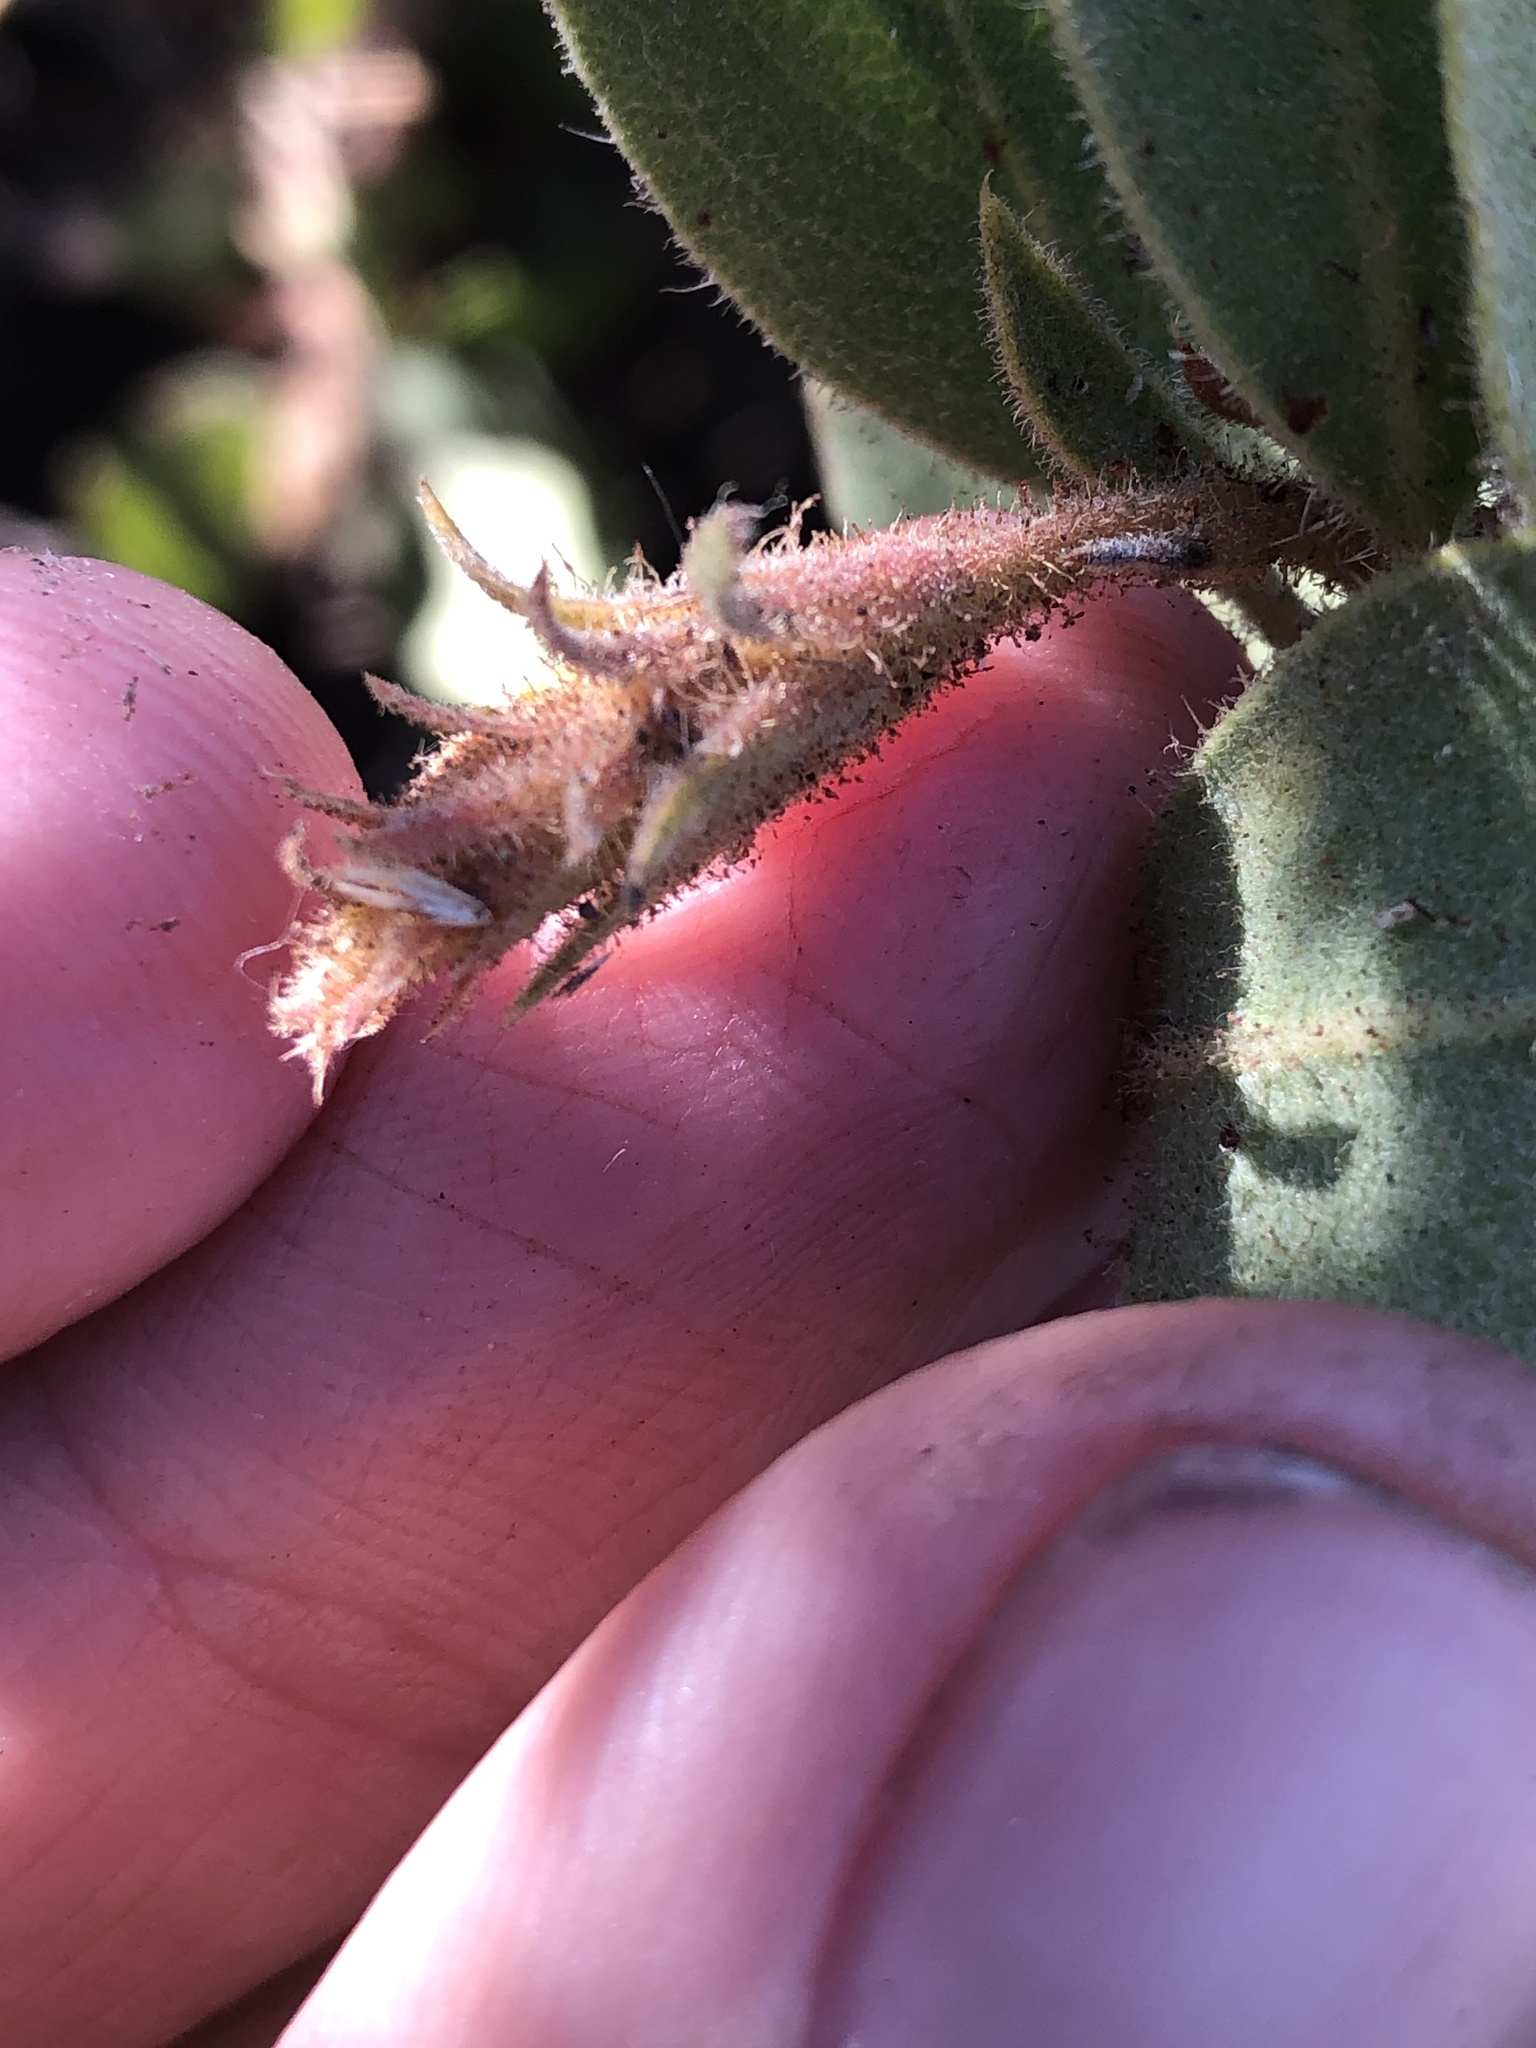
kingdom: Plantae
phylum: Tracheophyta
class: Magnoliopsida
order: Ericales
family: Ericaceae
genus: Arctostaphylos
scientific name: Arctostaphylos glandulosa
